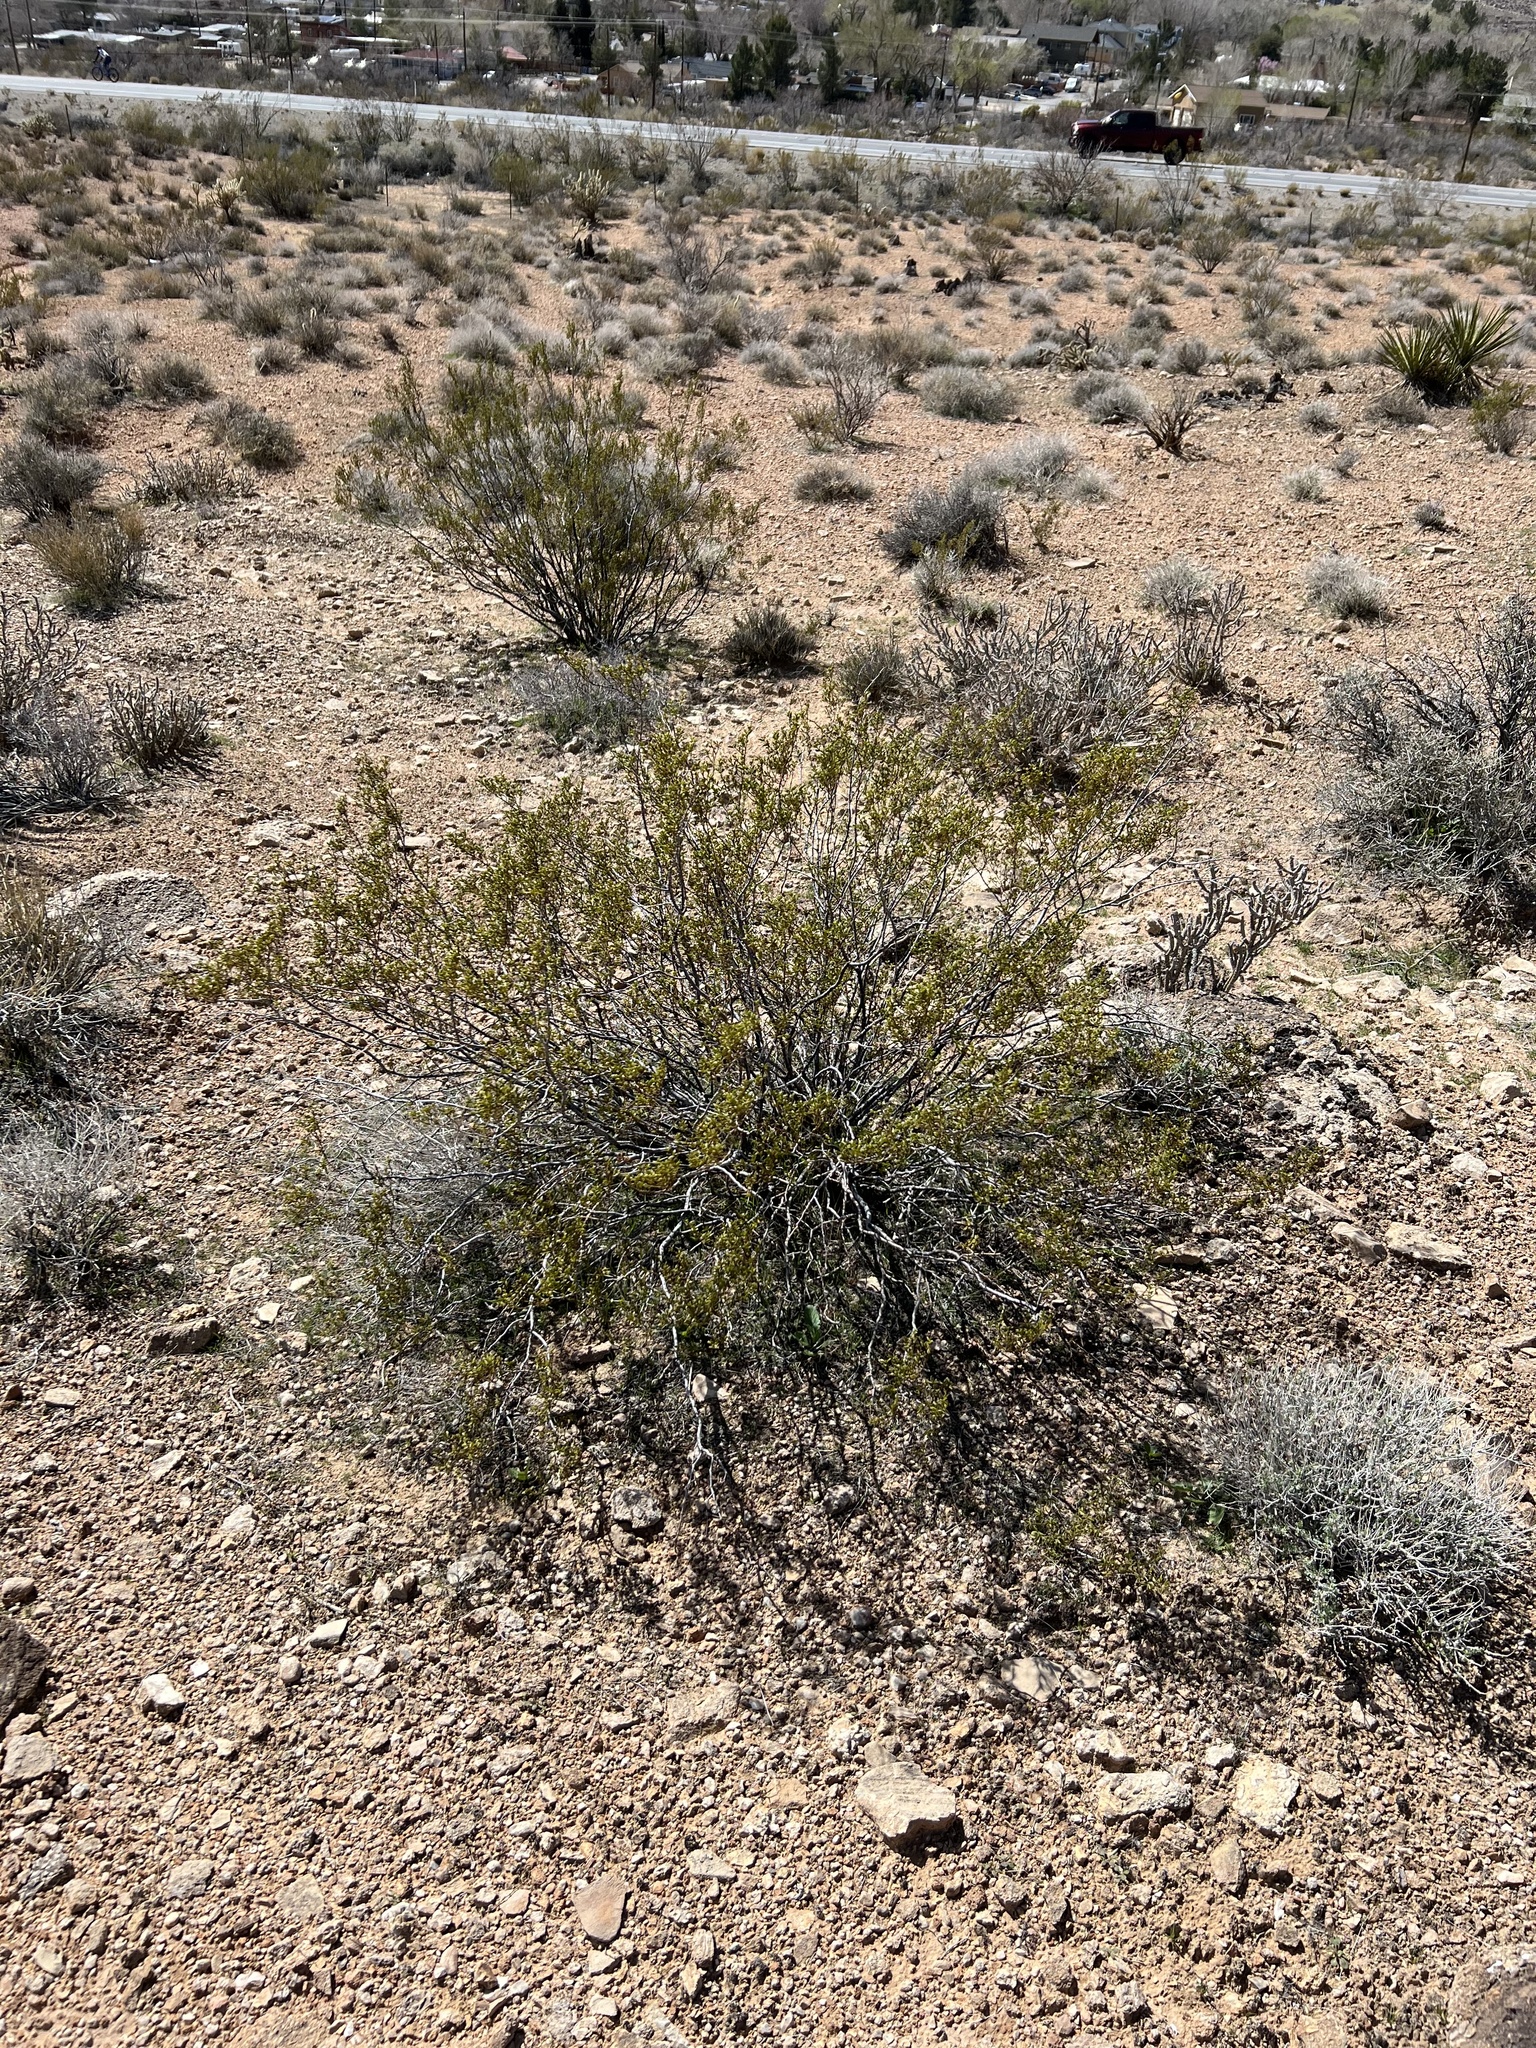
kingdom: Plantae
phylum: Tracheophyta
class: Magnoliopsida
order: Zygophyllales
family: Zygophyllaceae
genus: Larrea
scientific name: Larrea tridentata
